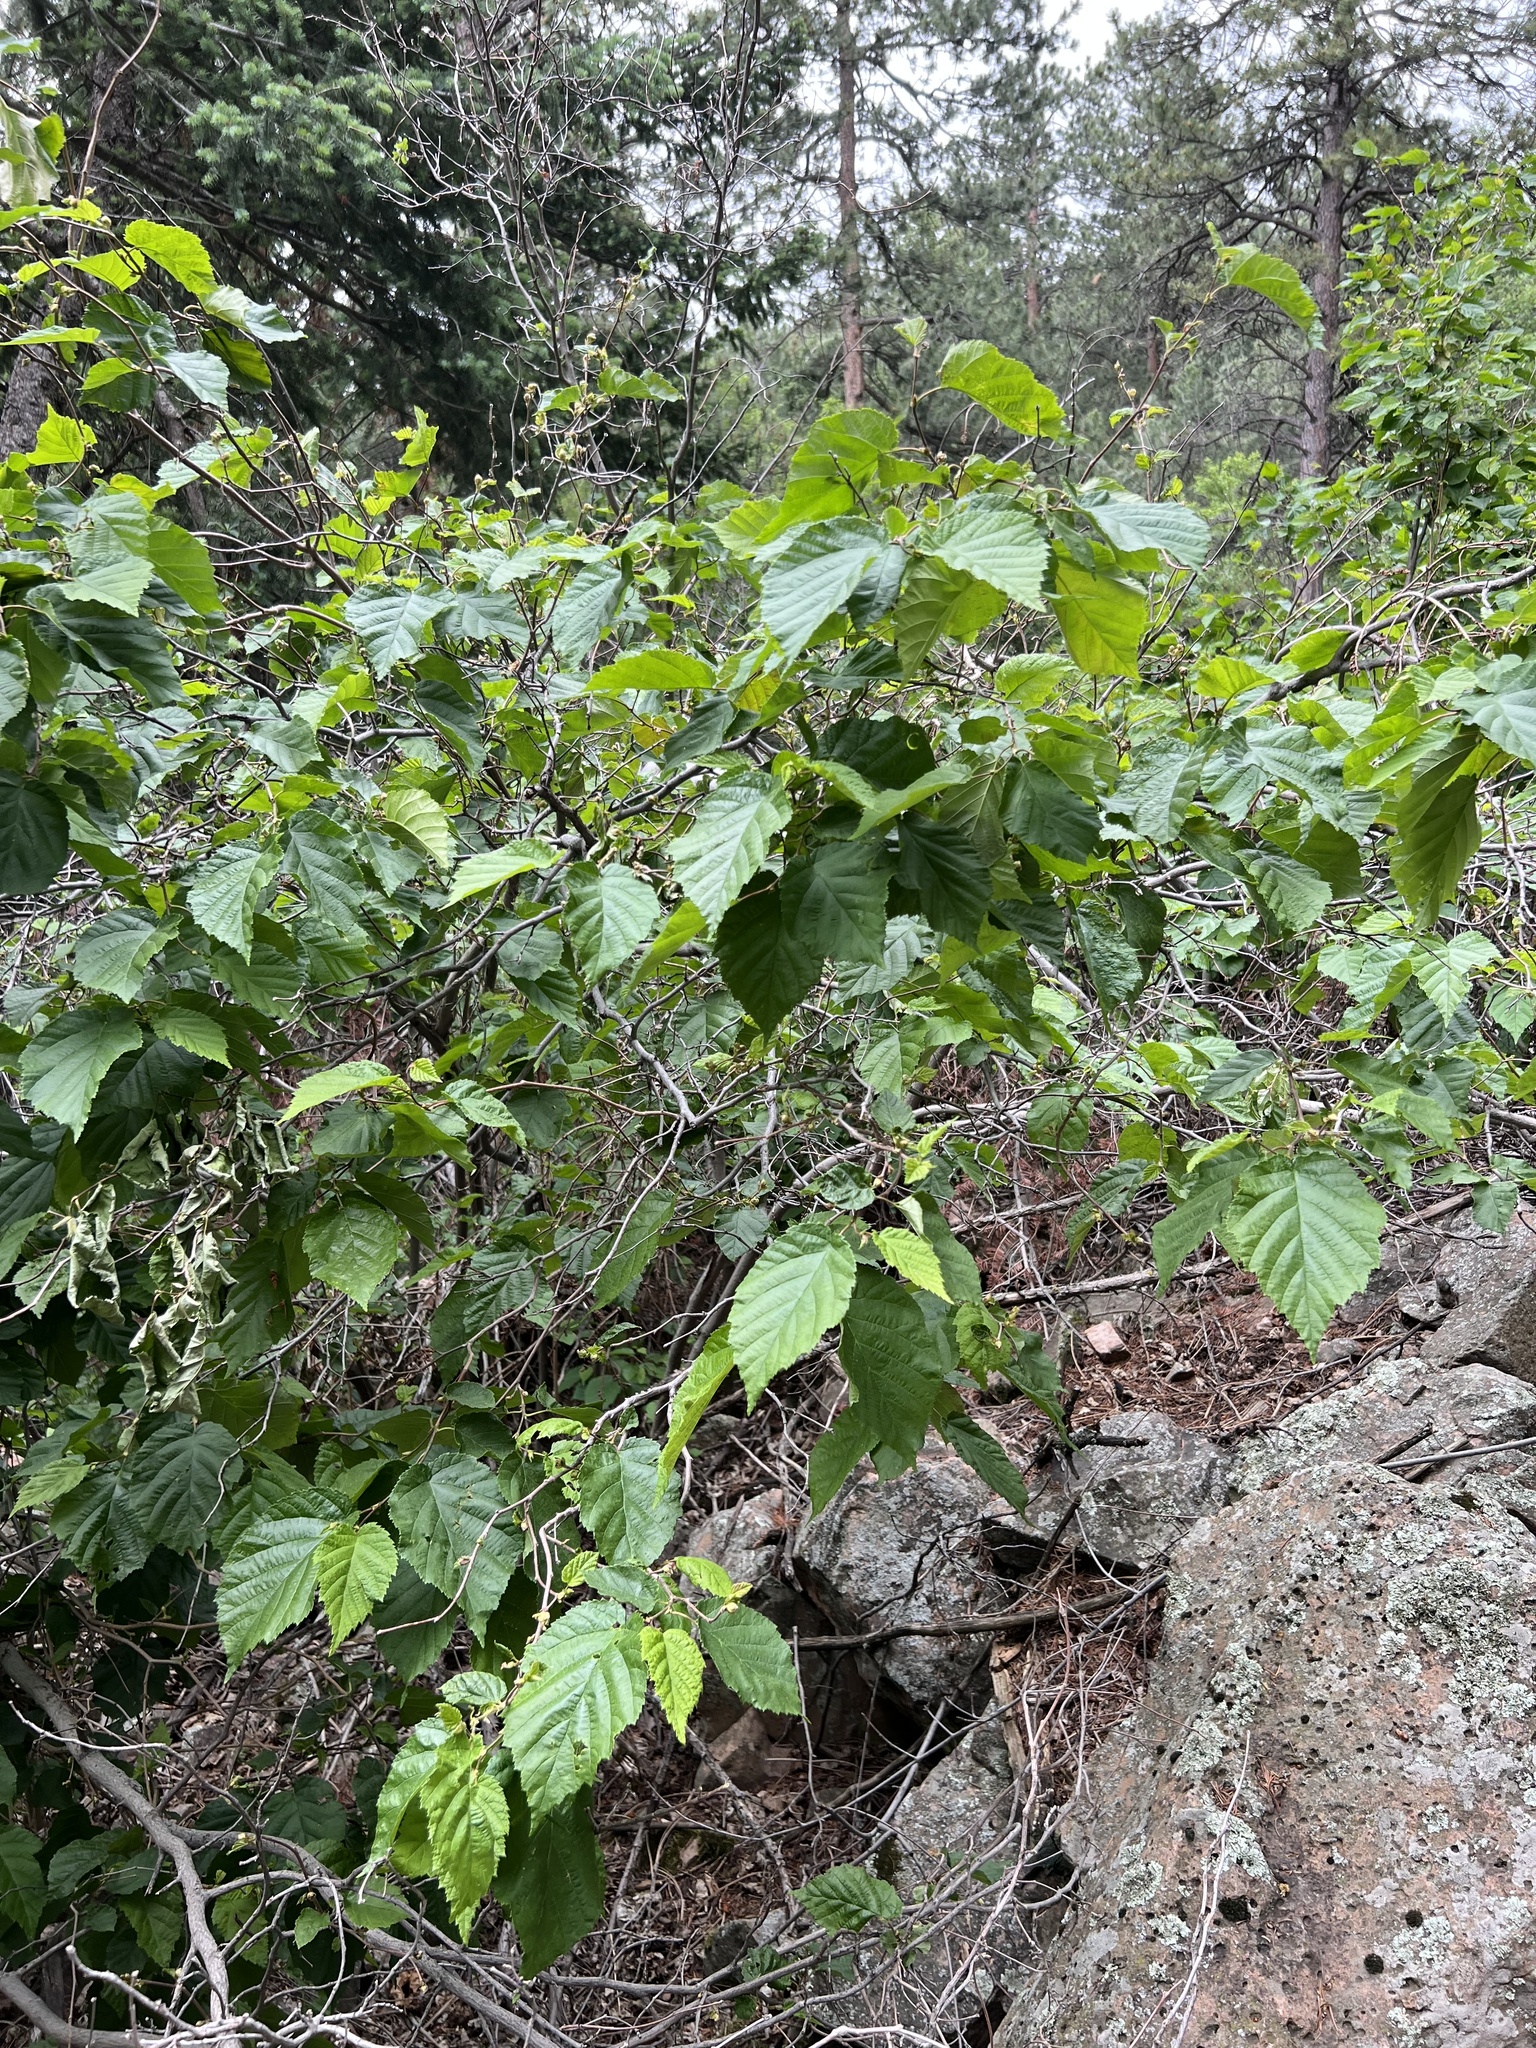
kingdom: Plantae
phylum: Tracheophyta
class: Magnoliopsida
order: Fagales
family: Betulaceae
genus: Corylus
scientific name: Corylus cornuta
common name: Beaked hazel
